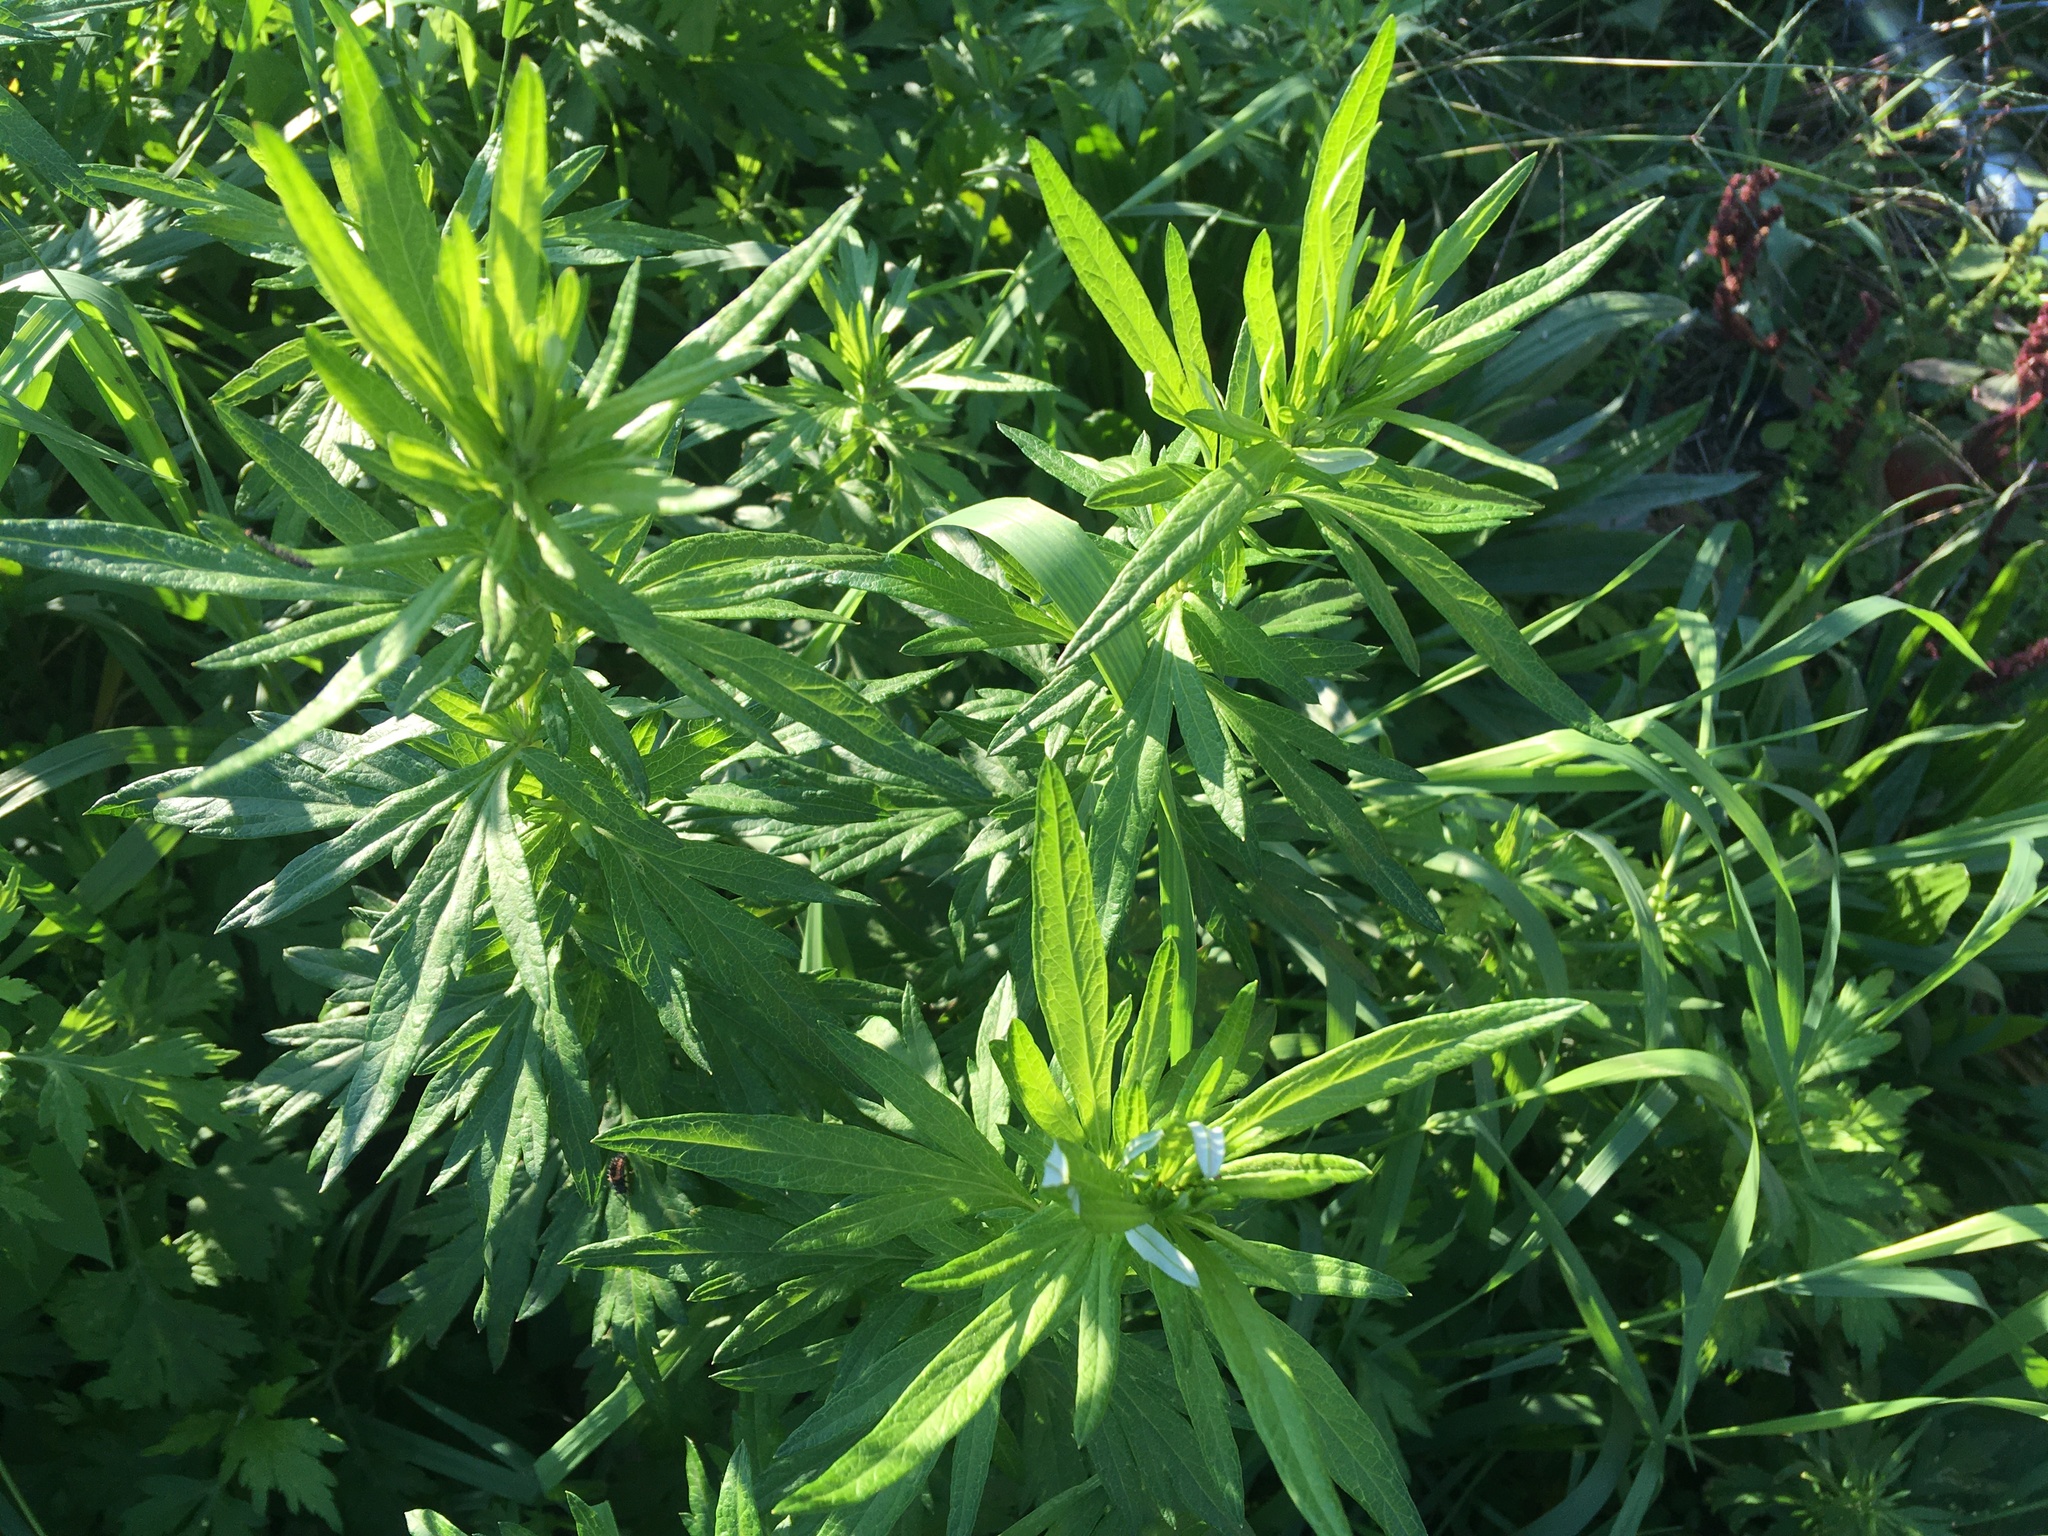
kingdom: Plantae
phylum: Tracheophyta
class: Magnoliopsida
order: Asterales
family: Asteraceae
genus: Artemisia
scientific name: Artemisia vulgaris
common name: Mugwort
